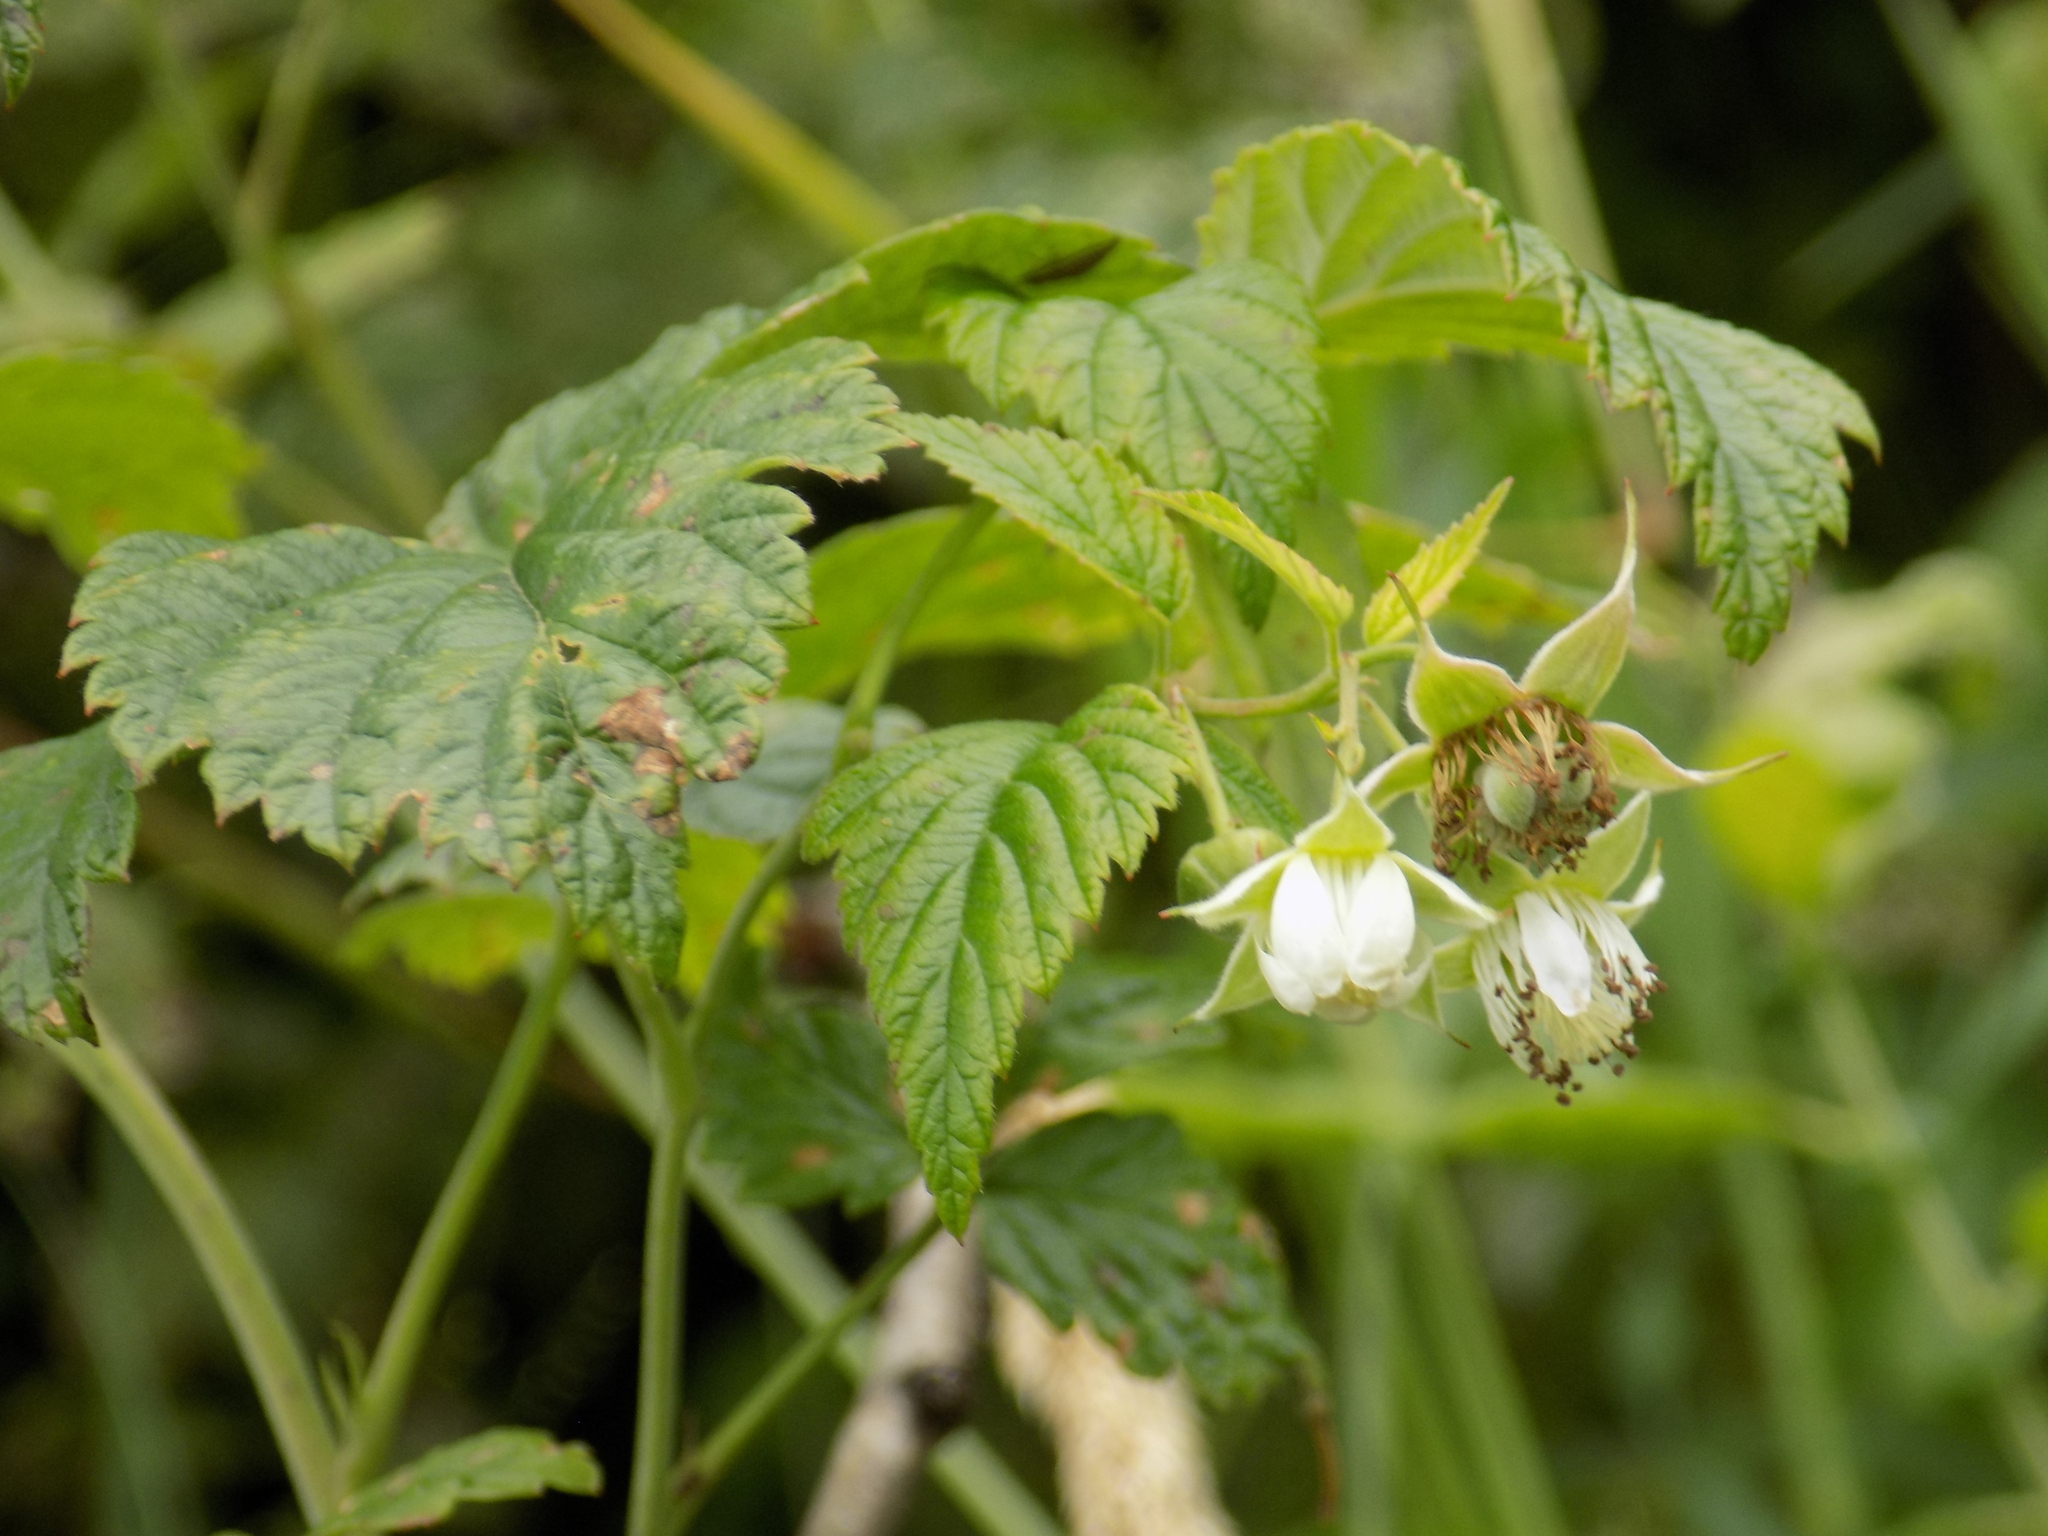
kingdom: Plantae
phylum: Tracheophyta
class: Magnoliopsida
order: Rosales
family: Rosaceae
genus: Rubus
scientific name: Rubus idaeus
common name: Raspberry
